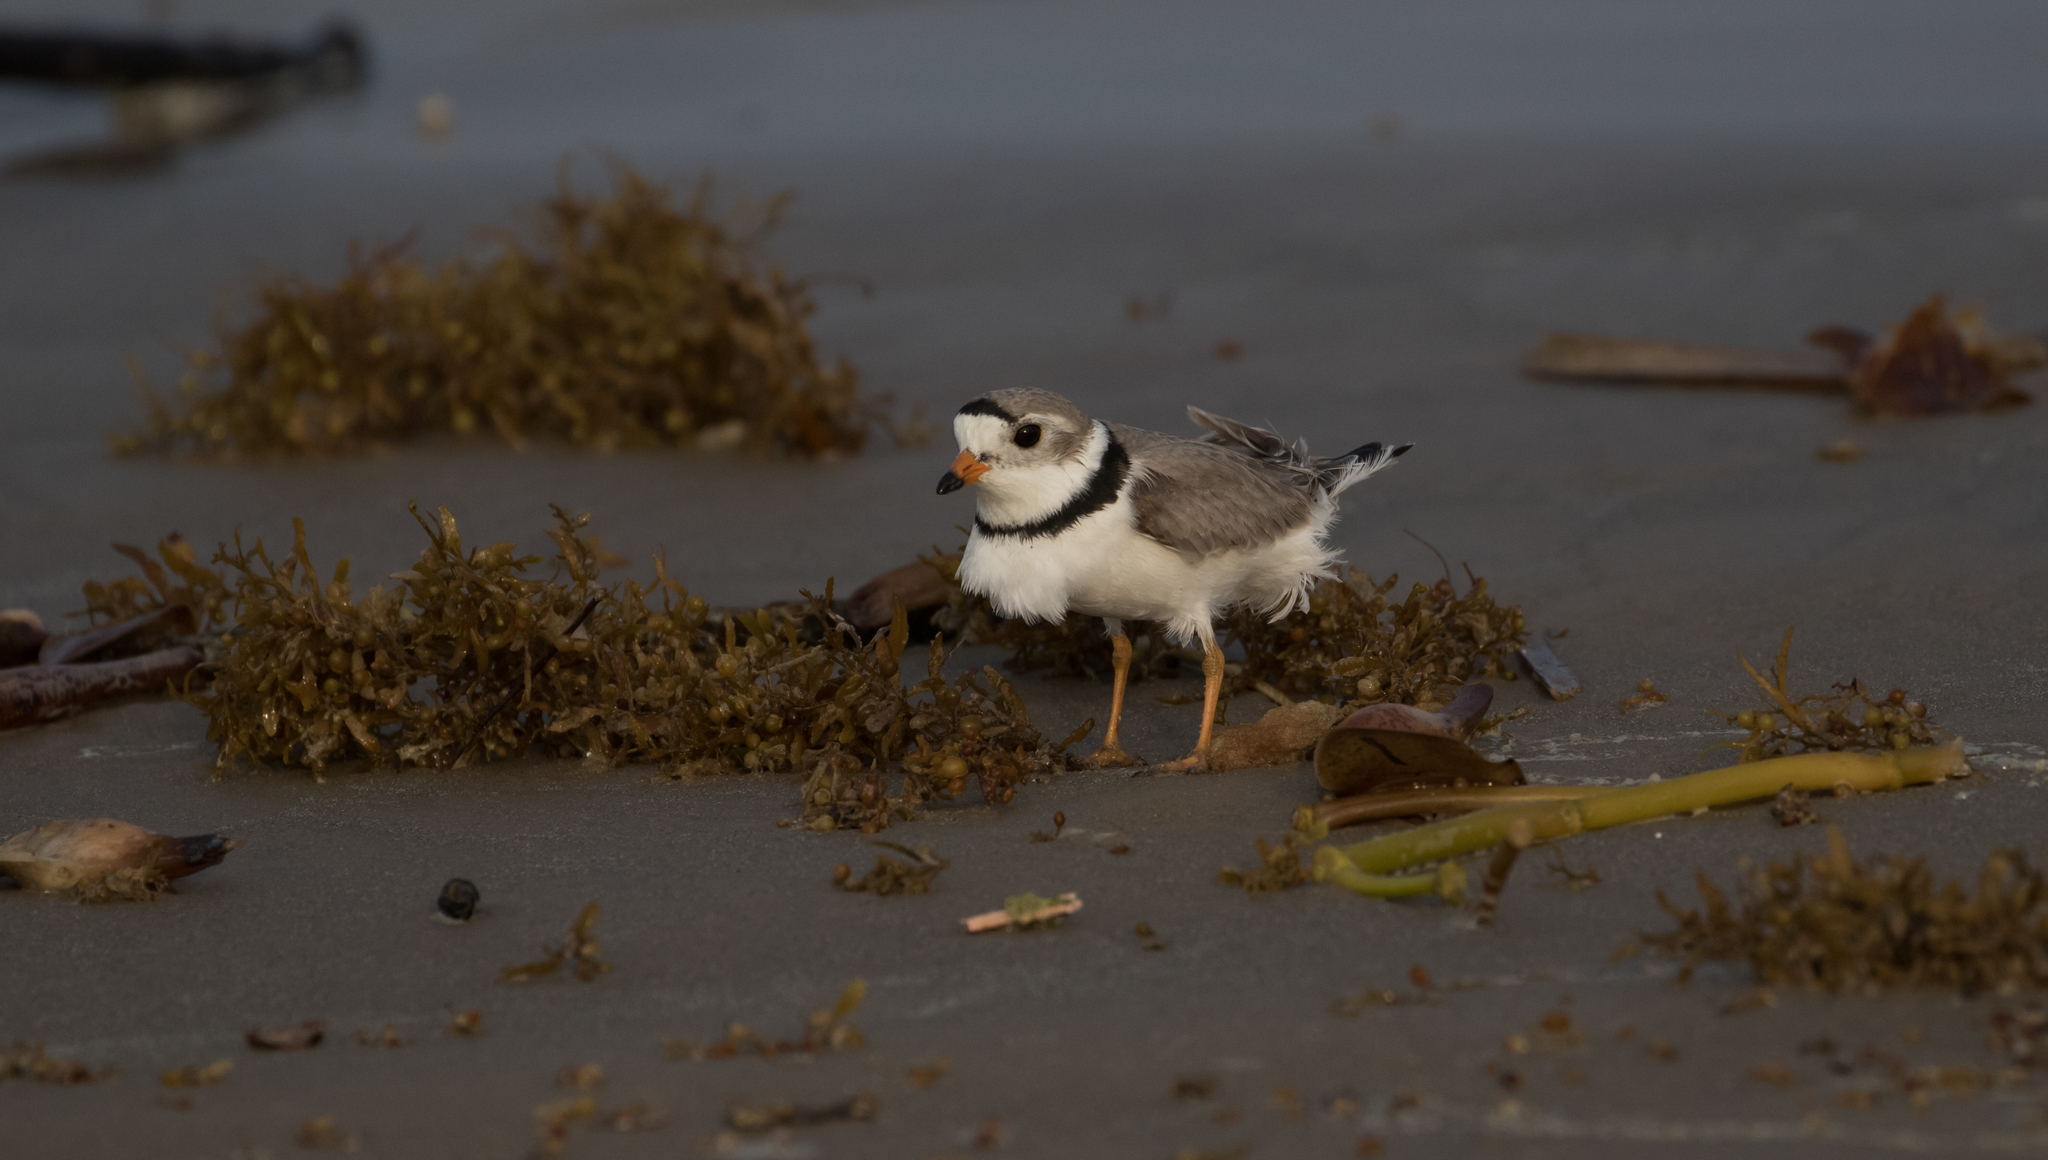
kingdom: Animalia
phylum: Chordata
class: Aves
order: Charadriiformes
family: Charadriidae
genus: Charadrius
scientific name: Charadrius melodus
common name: Piping plover
